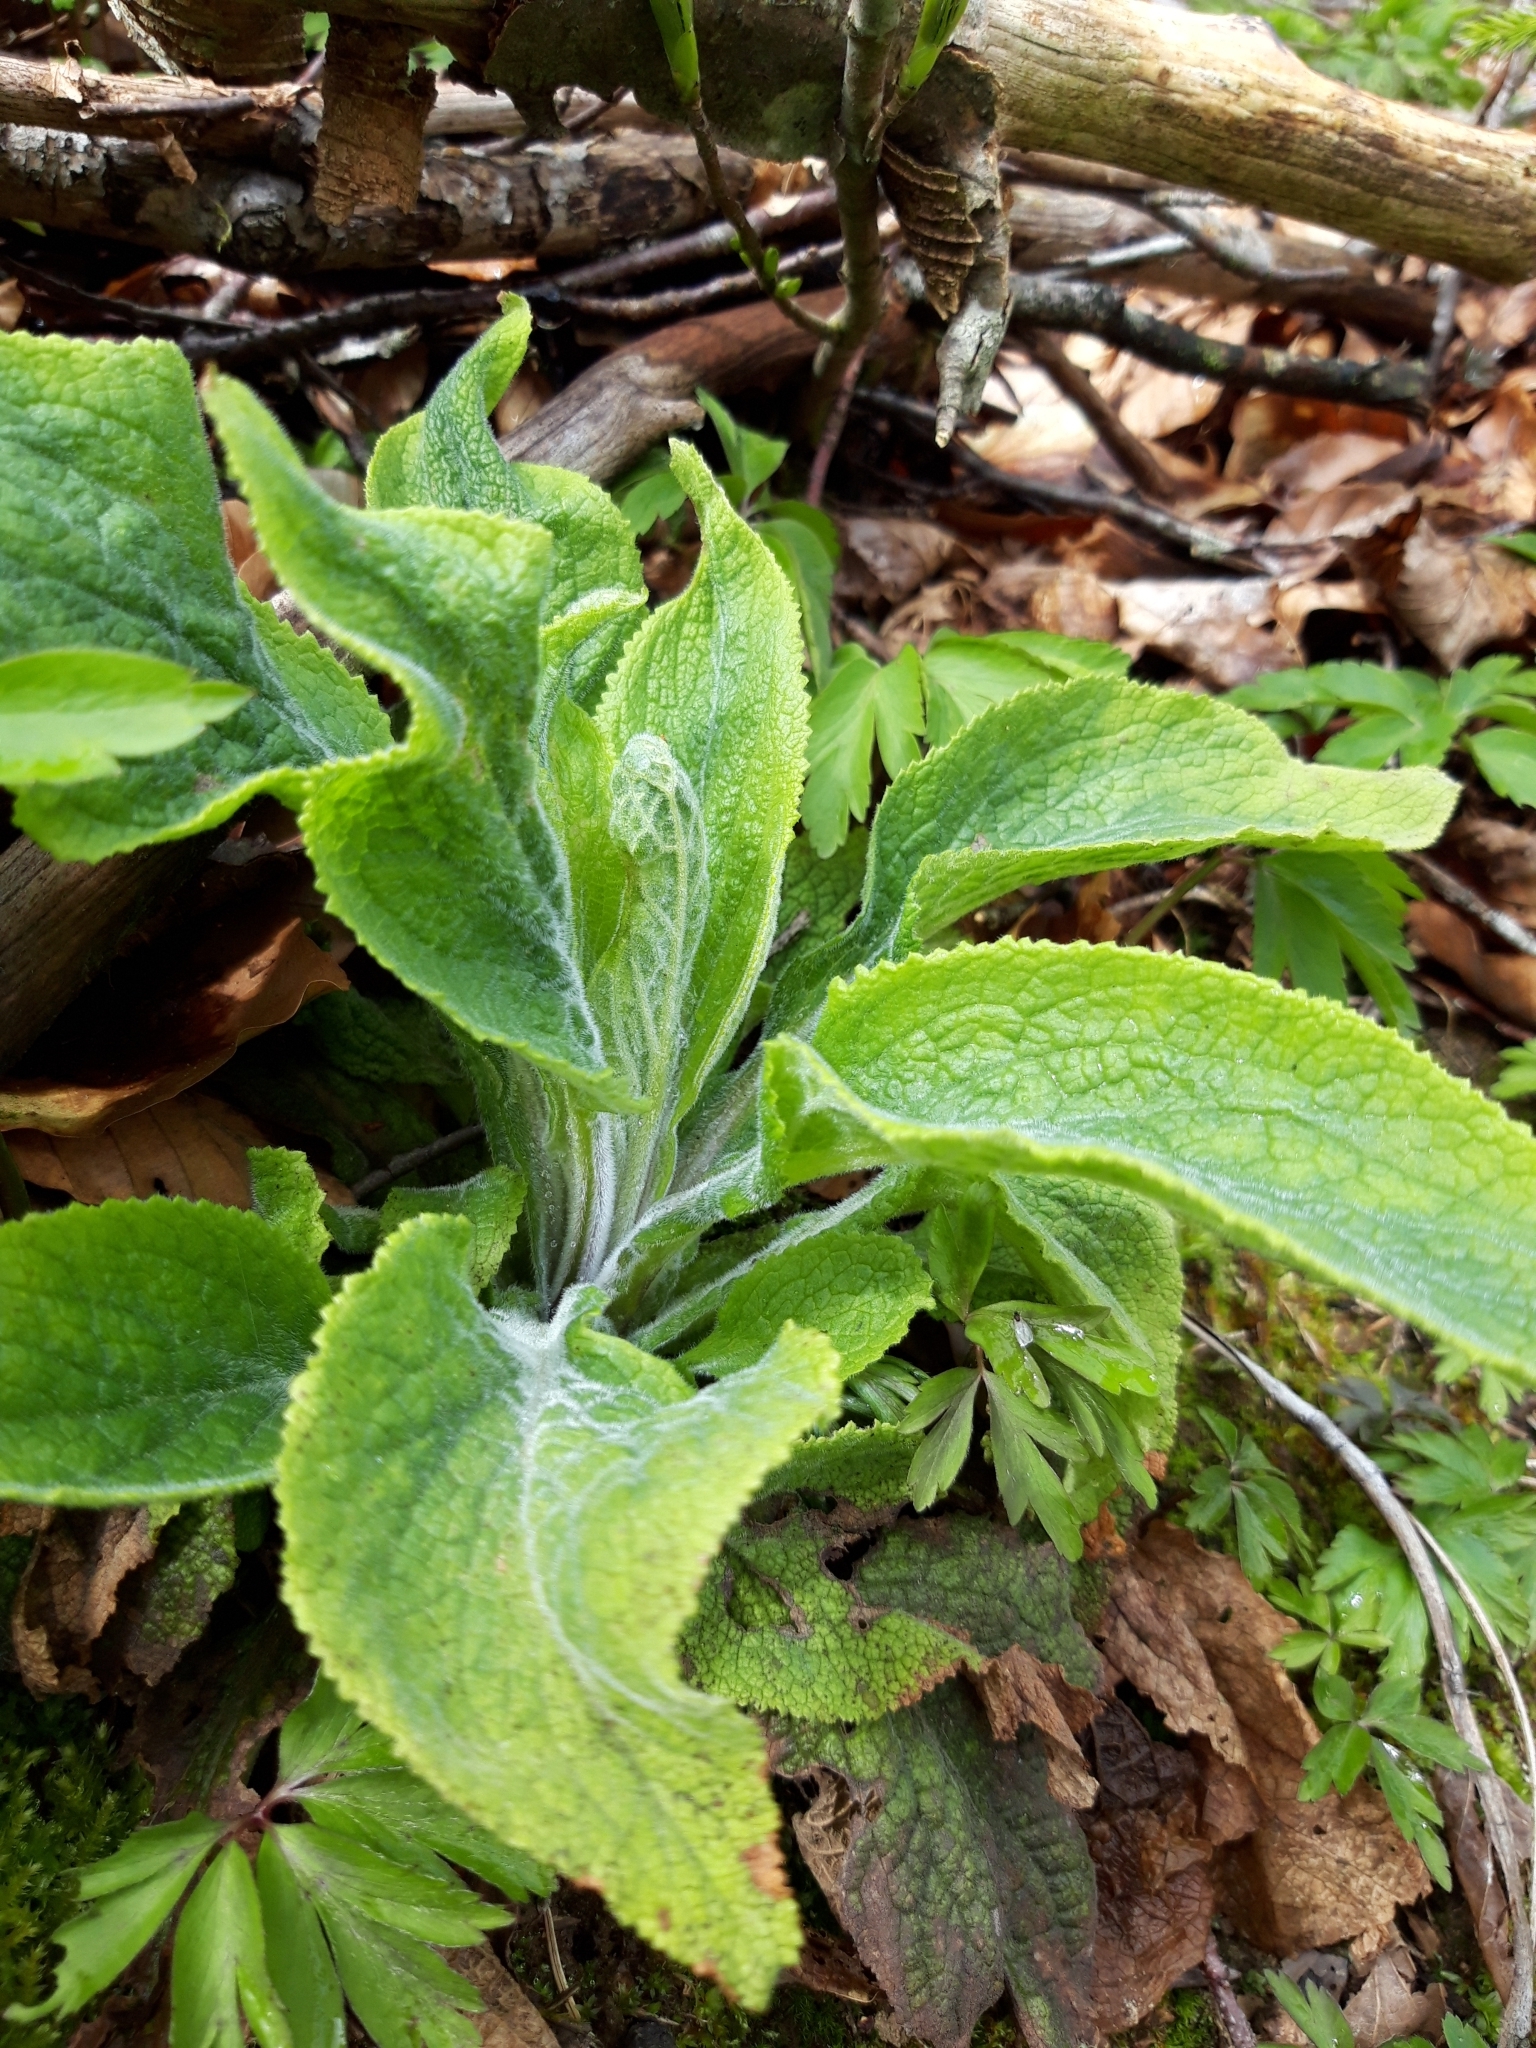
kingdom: Plantae
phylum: Tracheophyta
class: Magnoliopsida
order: Lamiales
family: Plantaginaceae
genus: Digitalis
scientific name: Digitalis purpurea
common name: Foxglove
